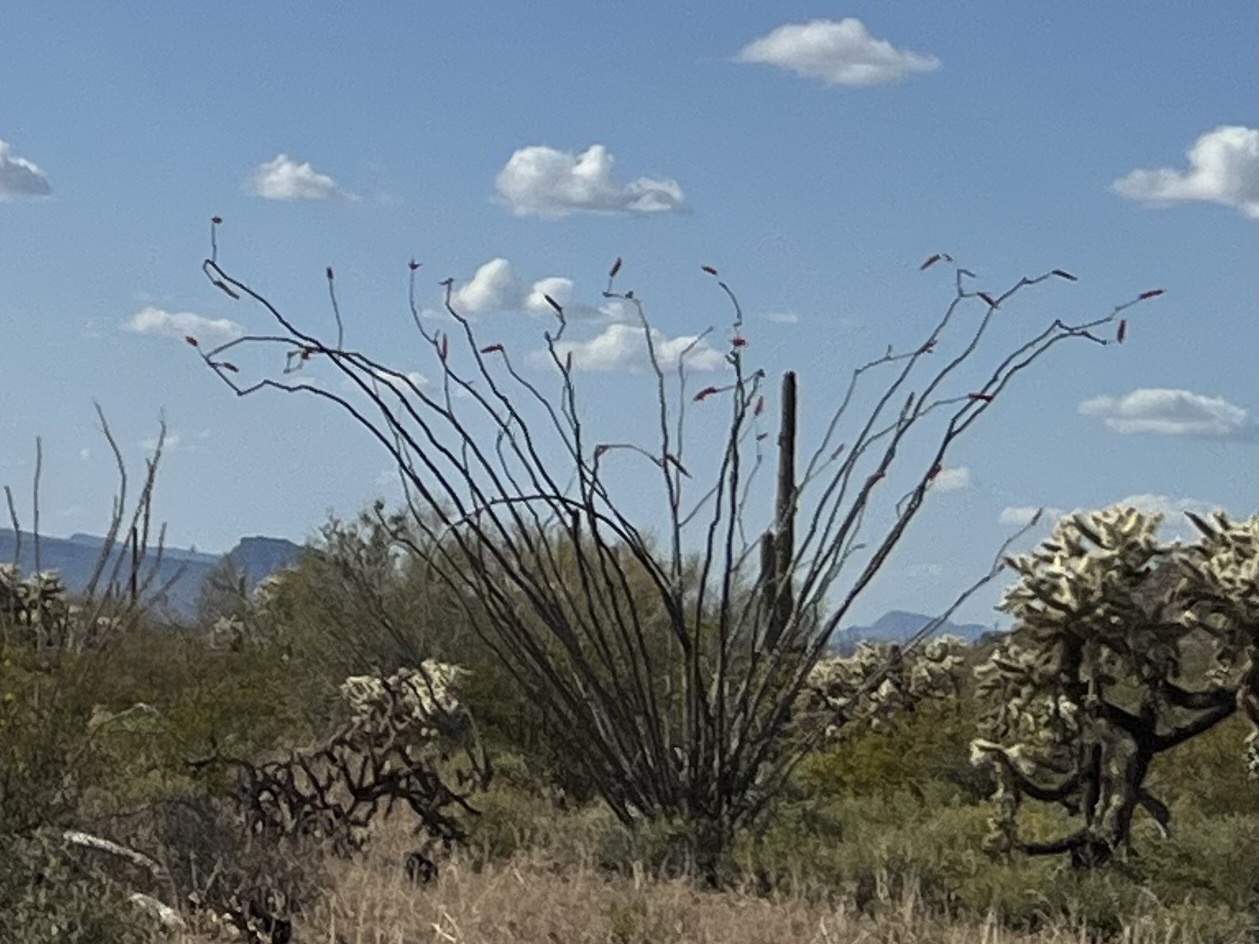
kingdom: Plantae
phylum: Tracheophyta
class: Magnoliopsida
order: Ericales
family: Fouquieriaceae
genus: Fouquieria
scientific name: Fouquieria splendens
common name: Vine-cactus
